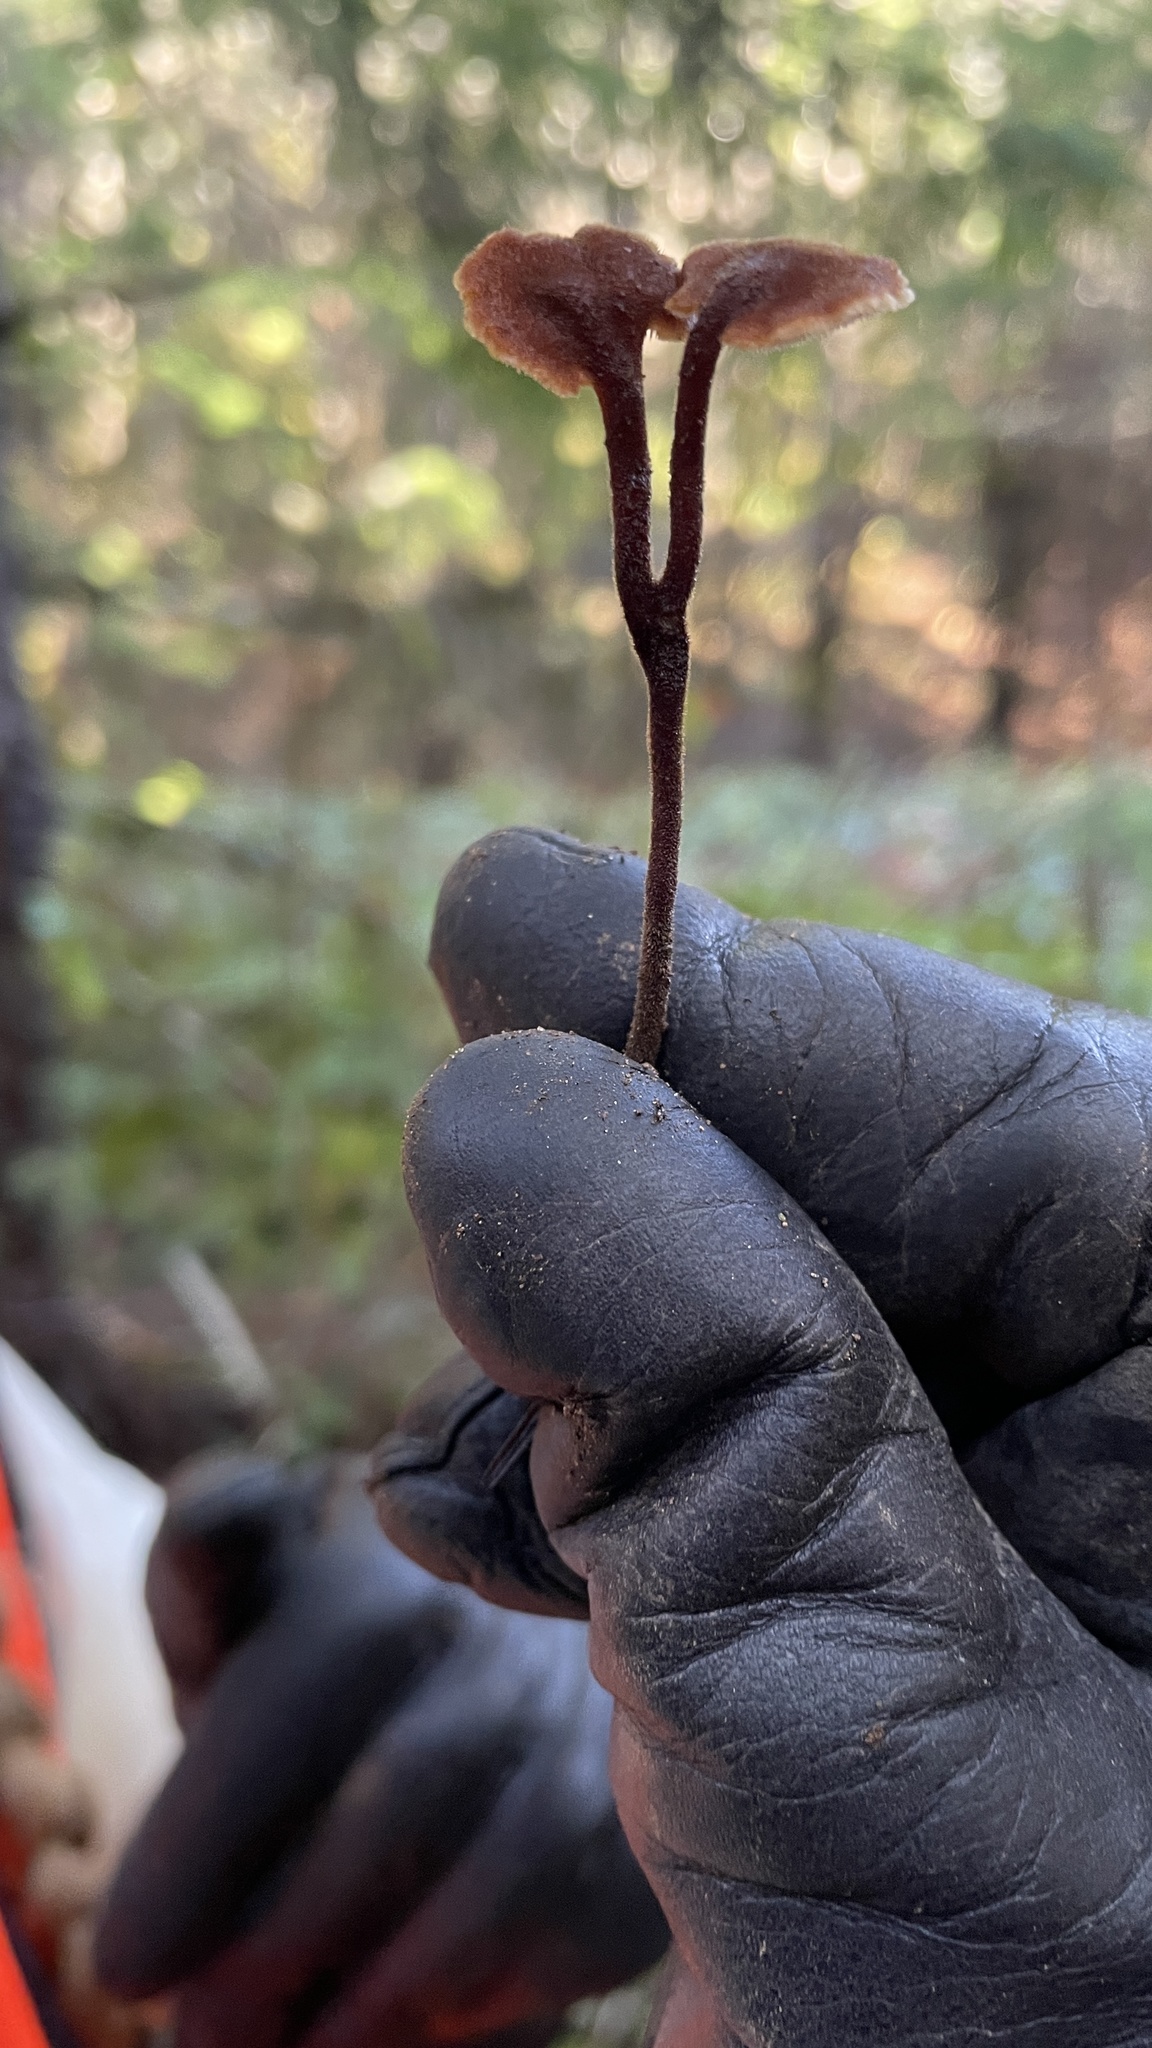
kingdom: Fungi
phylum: Basidiomycota
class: Agaricomycetes
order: Russulales
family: Auriscalpiaceae
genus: Auriscalpium
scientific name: Auriscalpium vulgare
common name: Earpick fungus
